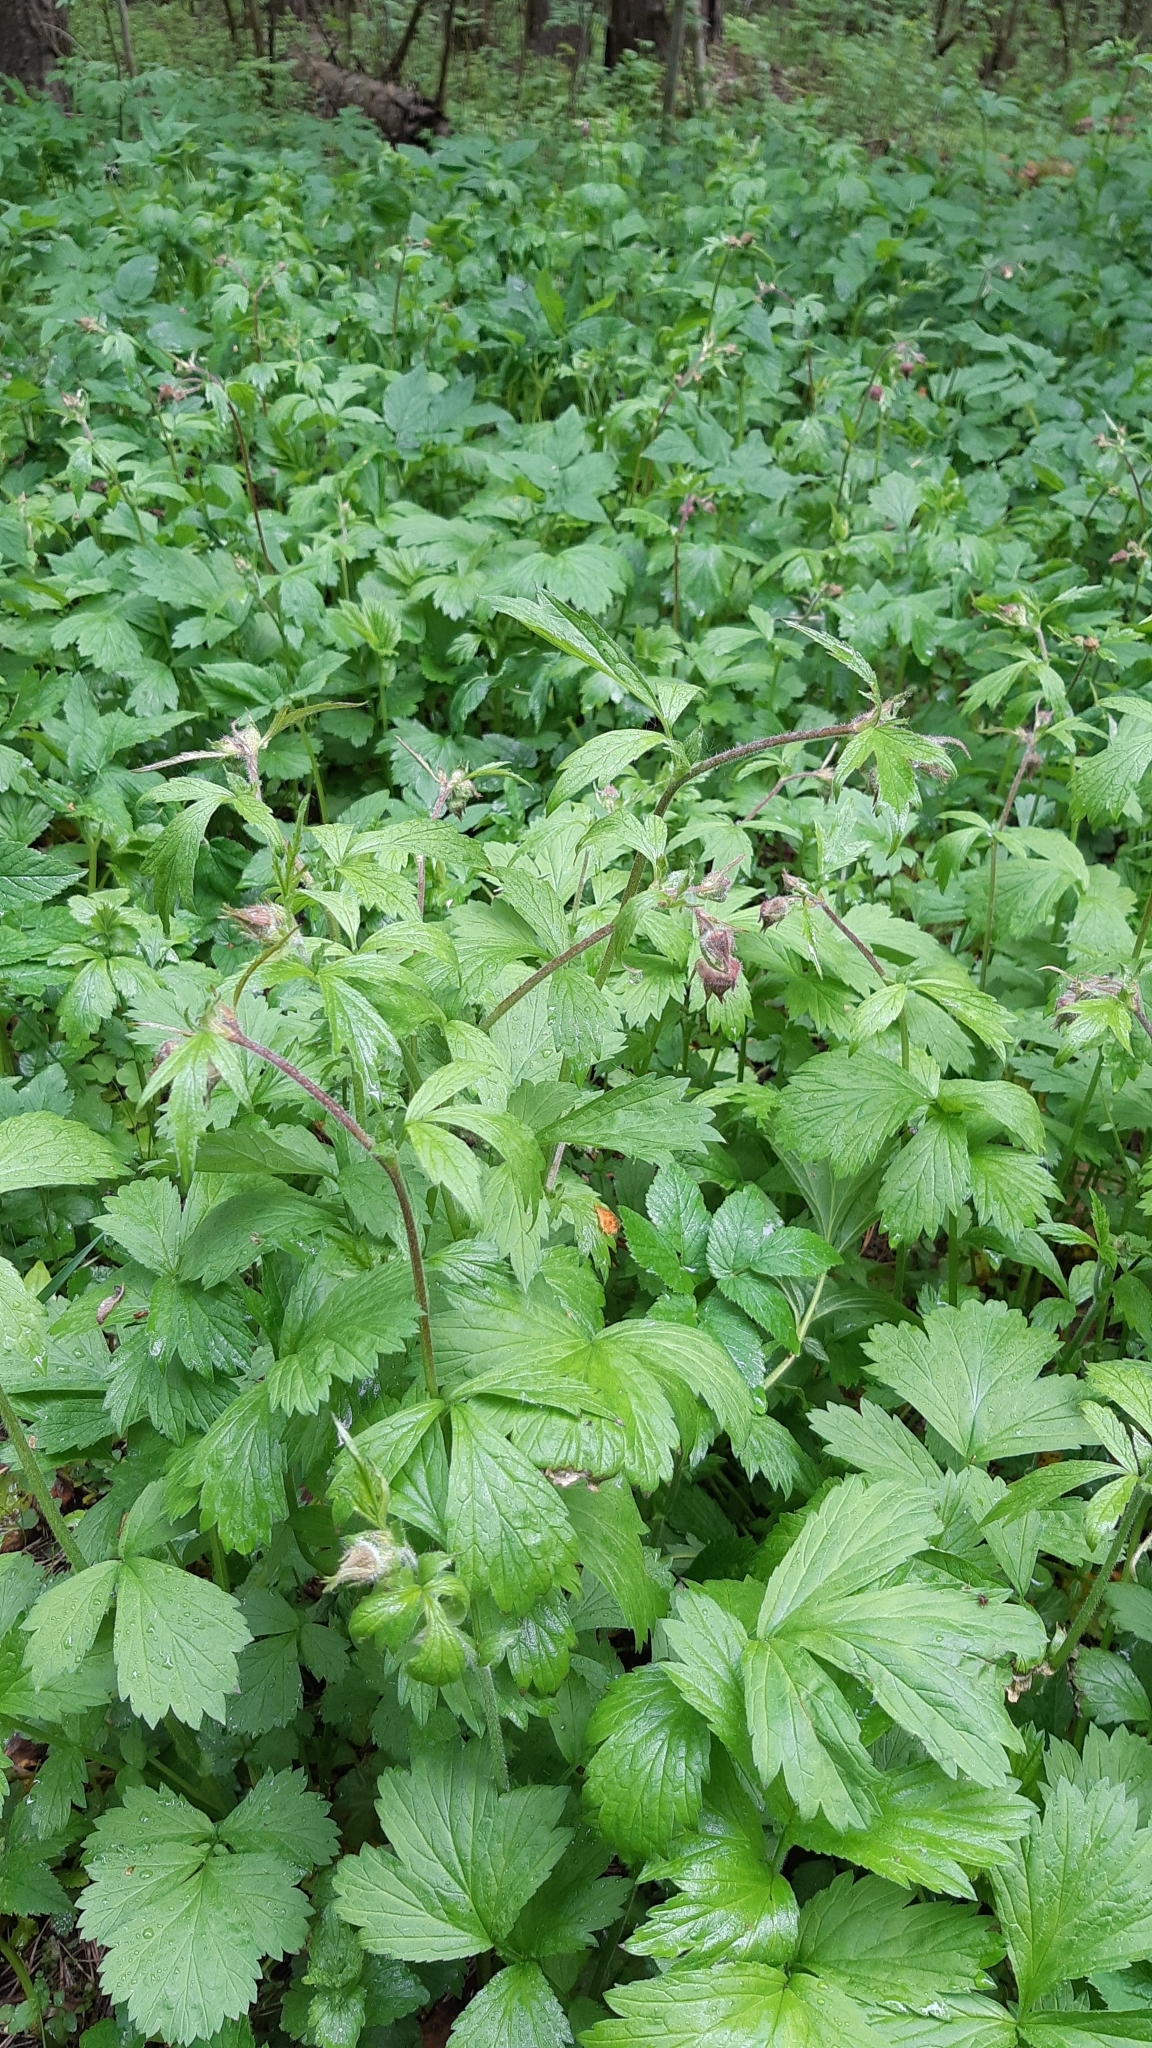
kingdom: Plantae
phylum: Tracheophyta
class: Magnoliopsida
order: Rosales
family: Rosaceae
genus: Geum
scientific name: Geum rivale
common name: Water avens
